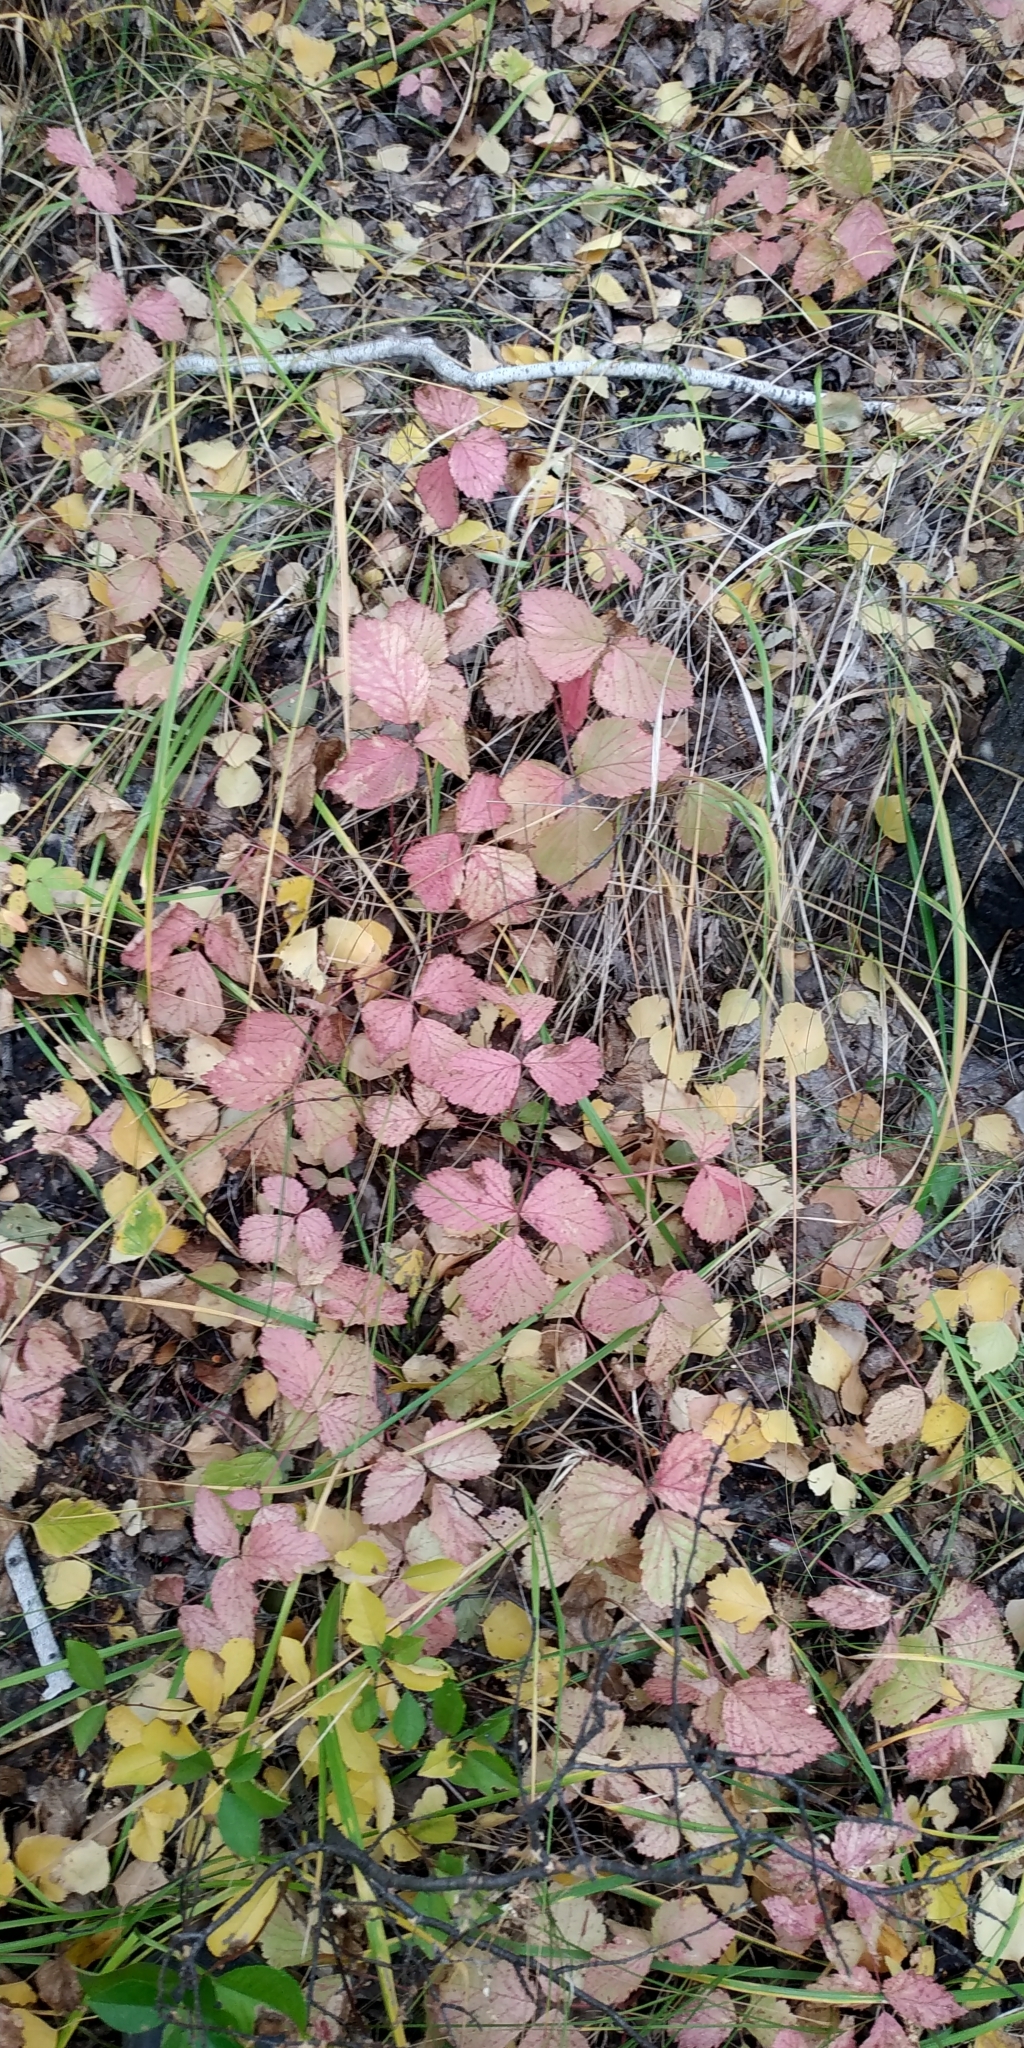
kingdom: Plantae
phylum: Tracheophyta
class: Magnoliopsida
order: Rosales
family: Rosaceae
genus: Rubus
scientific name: Rubus saxatilis
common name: Stone bramble
